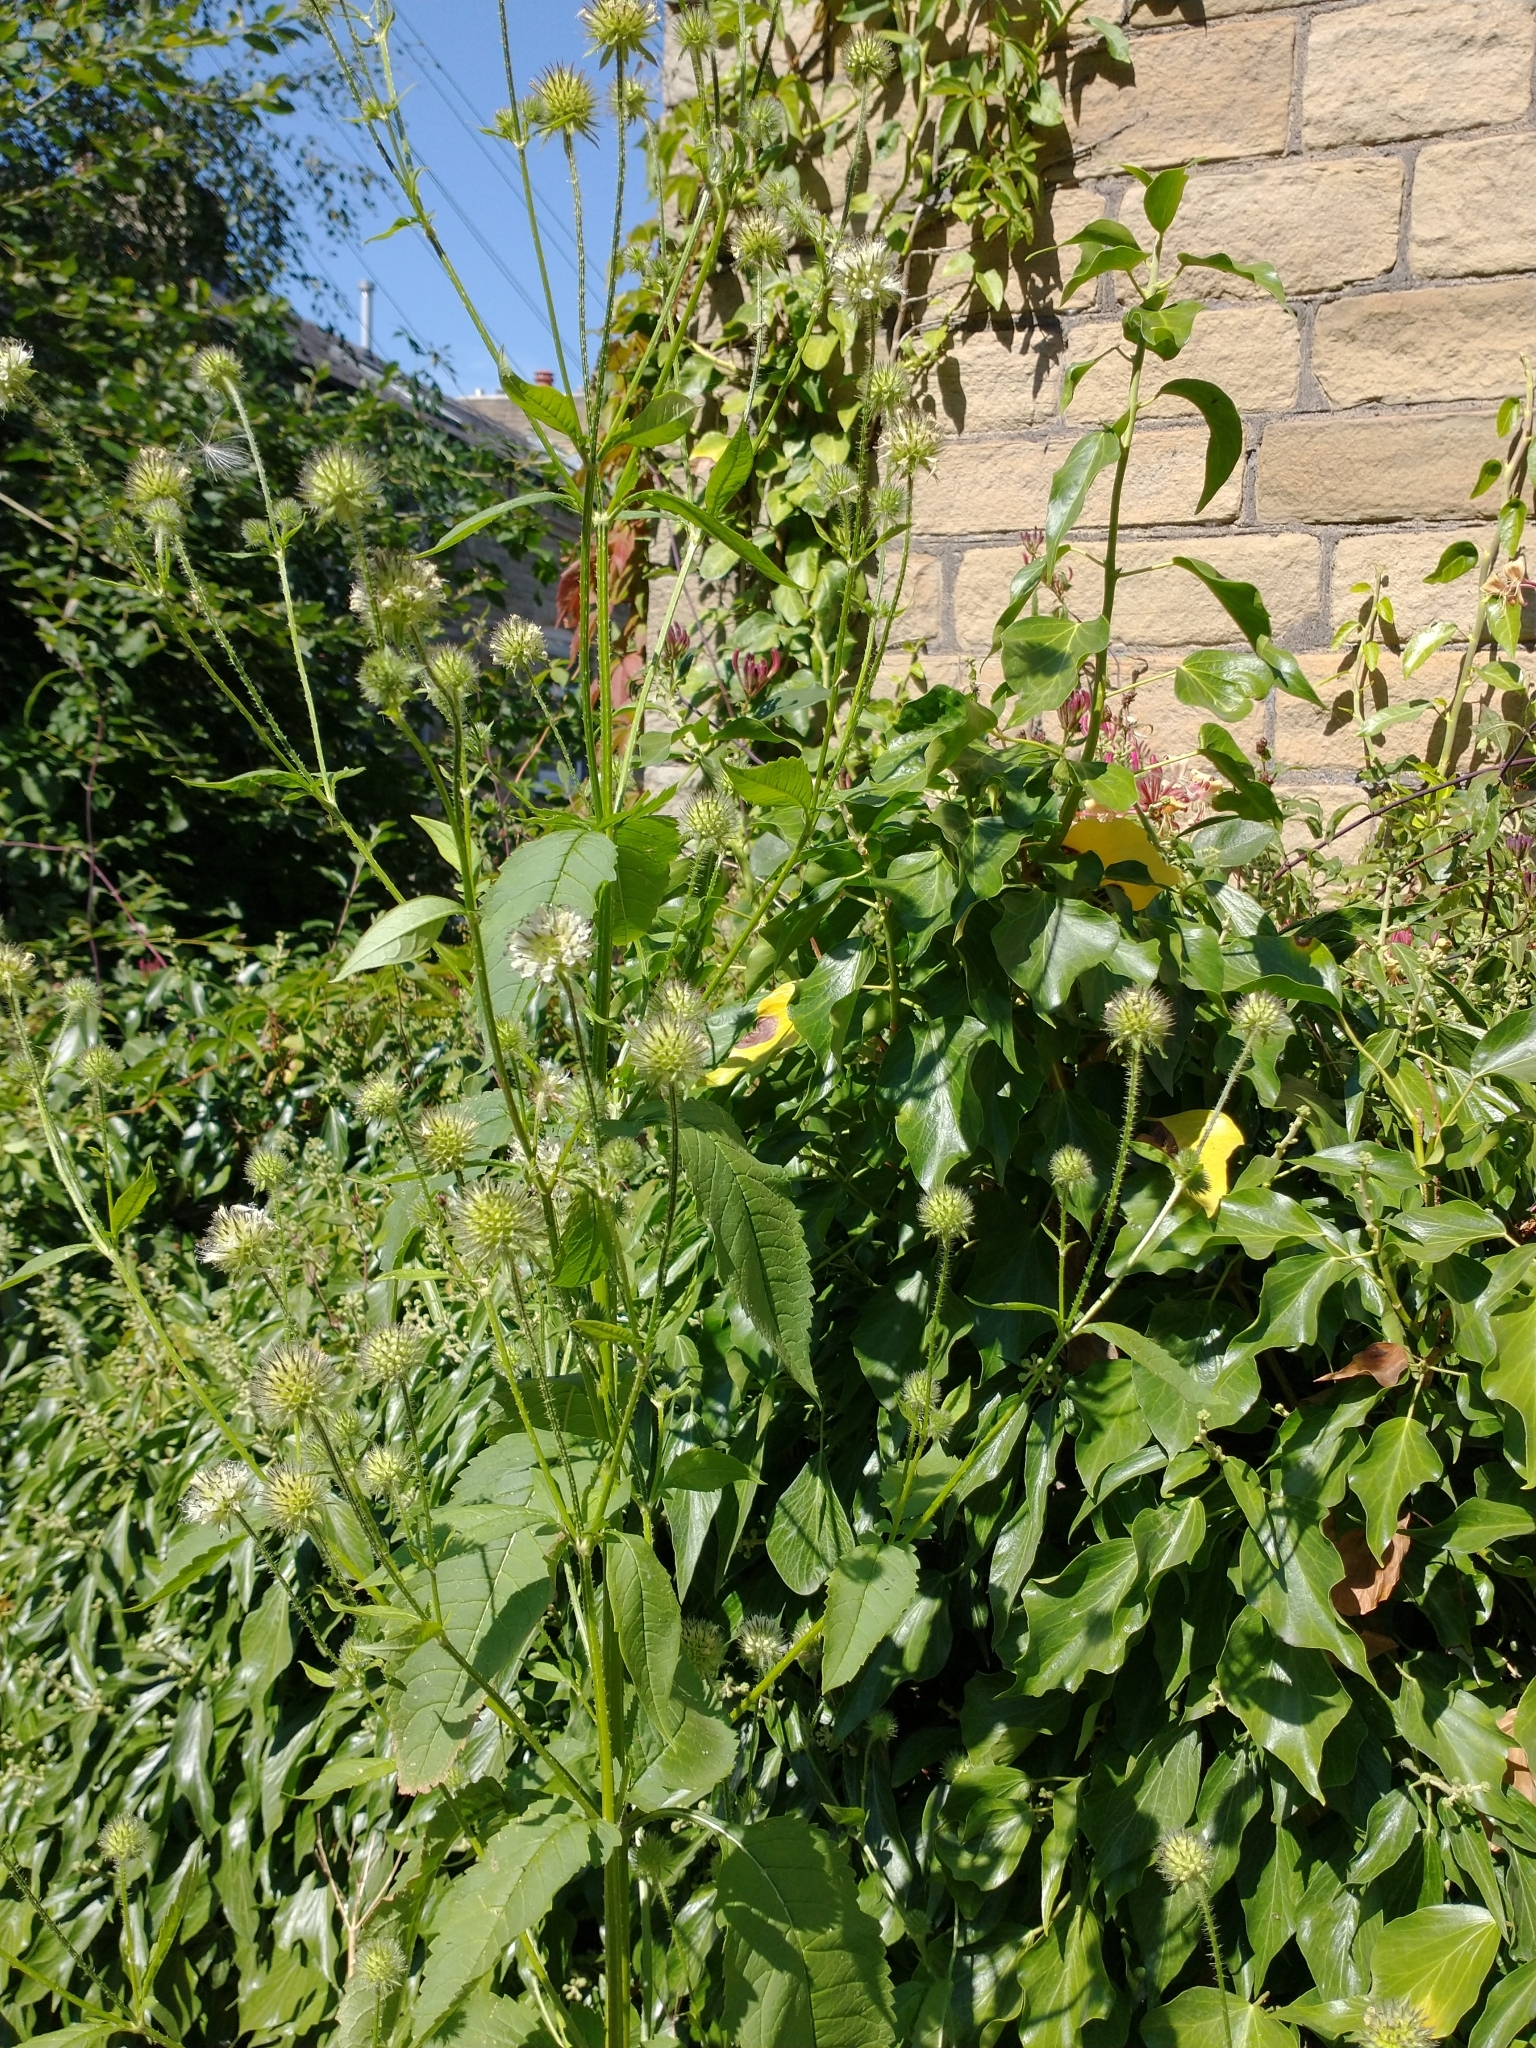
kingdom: Plantae
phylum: Tracheophyta
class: Magnoliopsida
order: Dipsacales
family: Caprifoliaceae
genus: Dipsacus
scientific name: Dipsacus pilosus
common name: Small teasel
